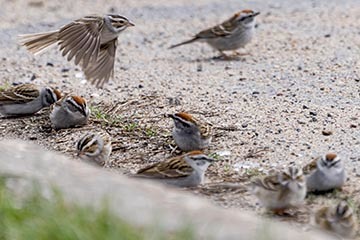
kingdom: Animalia
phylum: Chordata
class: Aves
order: Passeriformes
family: Passerellidae
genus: Spizella
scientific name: Spizella pallida
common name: Clay-colored sparrow
